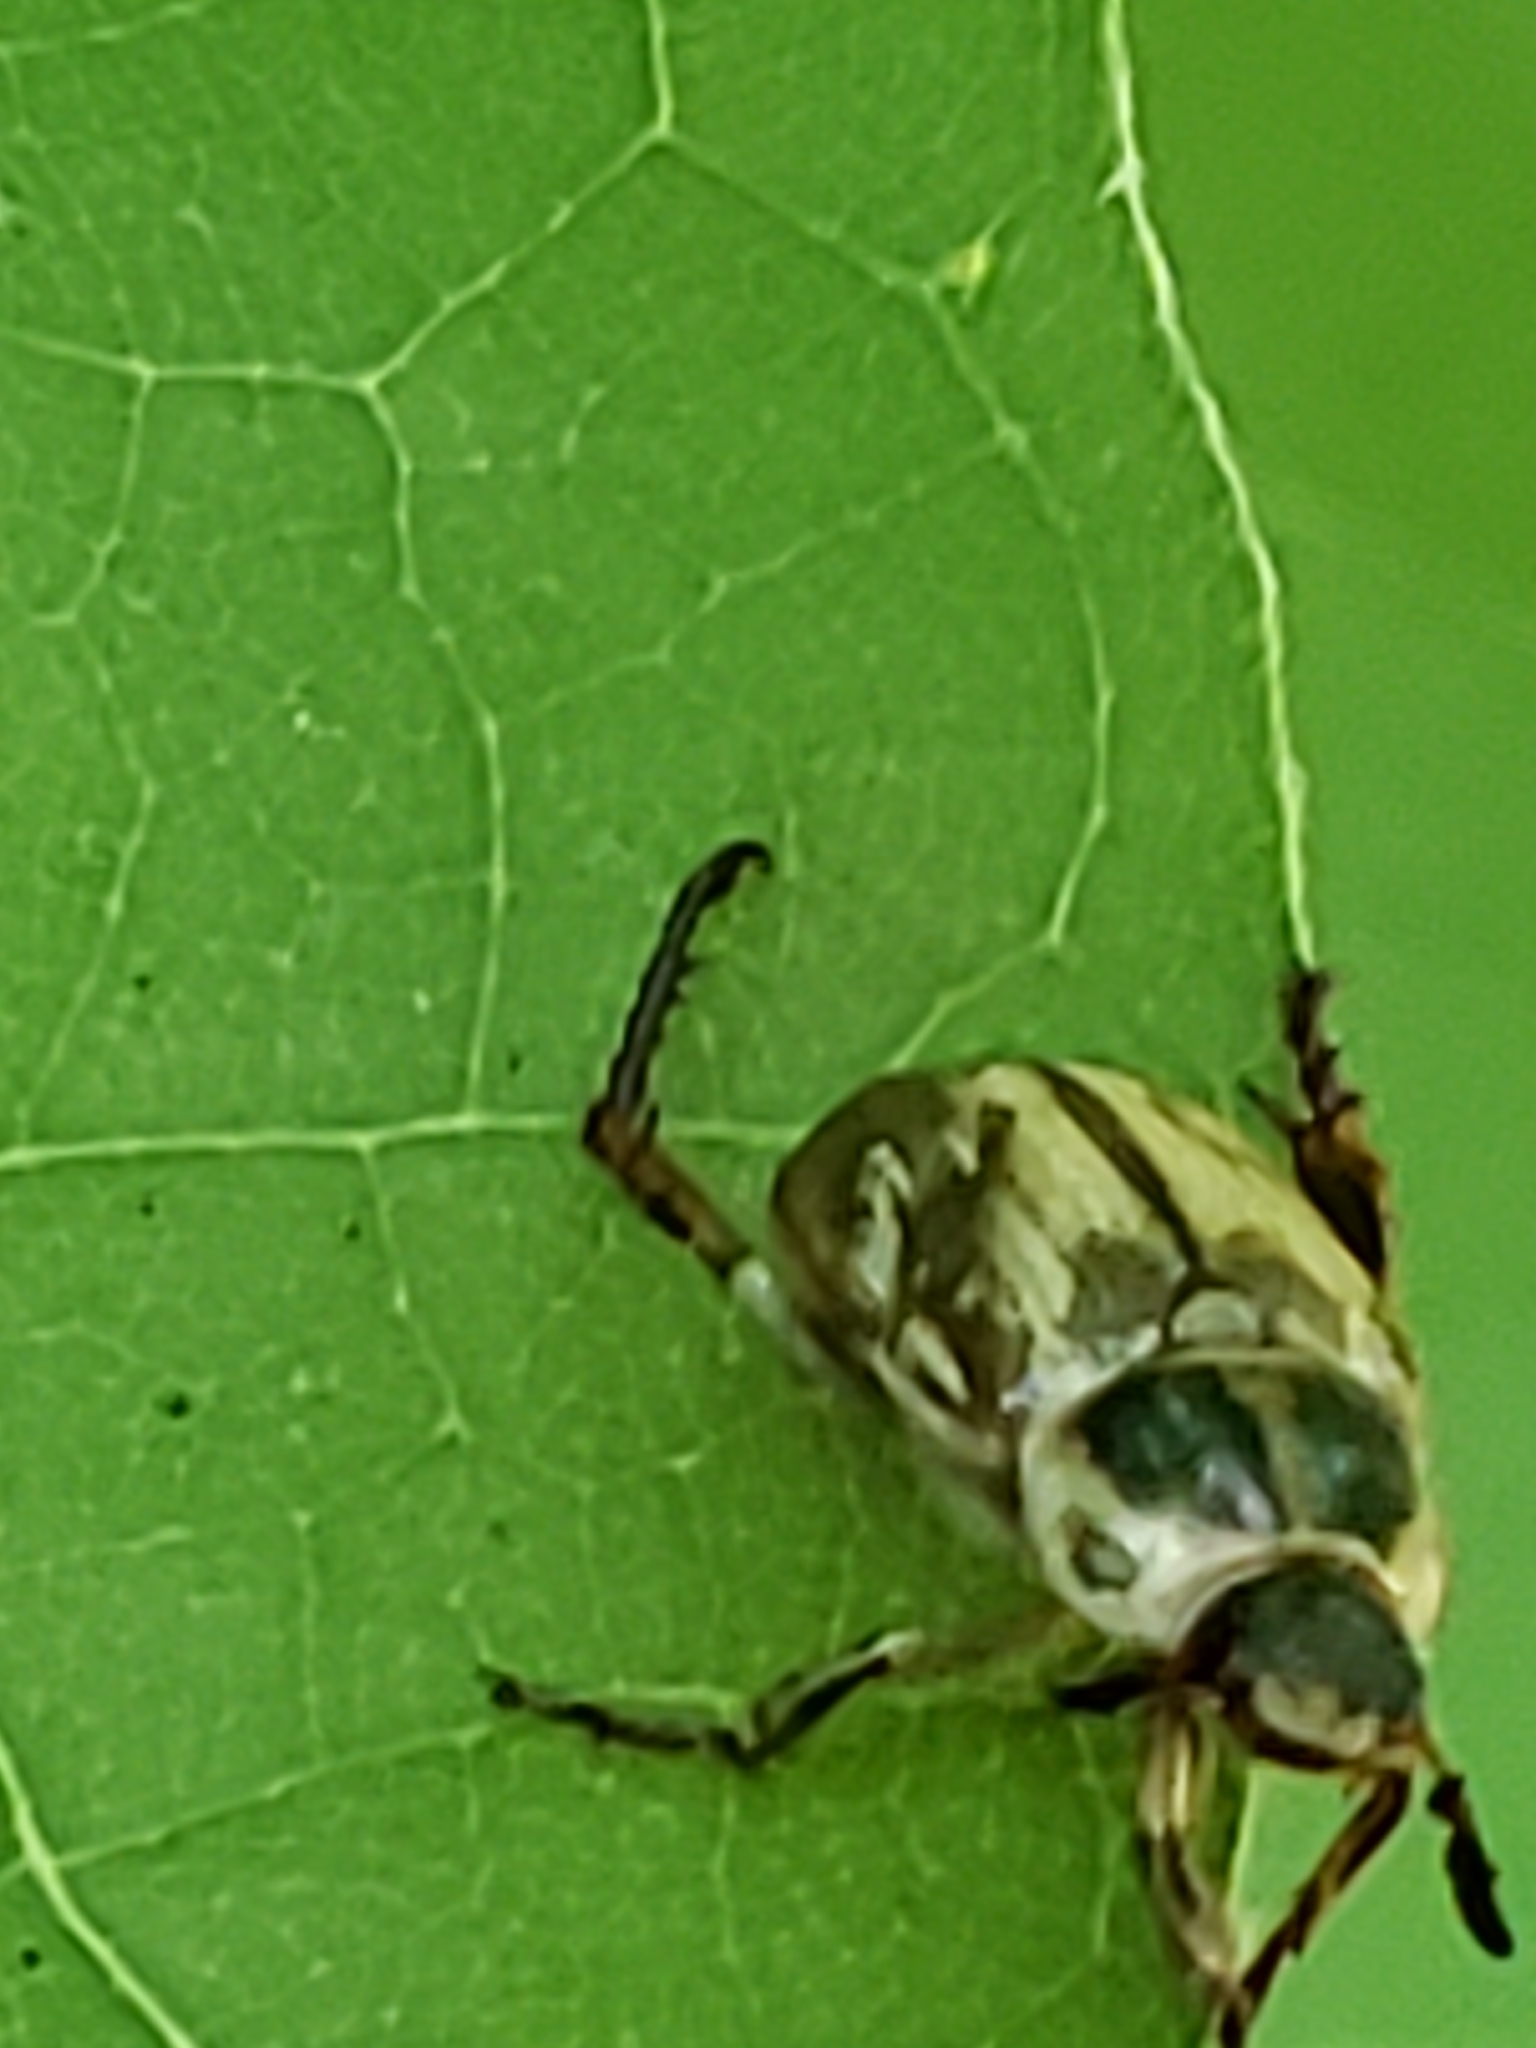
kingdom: Animalia
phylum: Arthropoda
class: Insecta
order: Coleoptera
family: Scarabaeidae
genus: Exomala
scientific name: Exomala orientalis
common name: Oriental beetle
